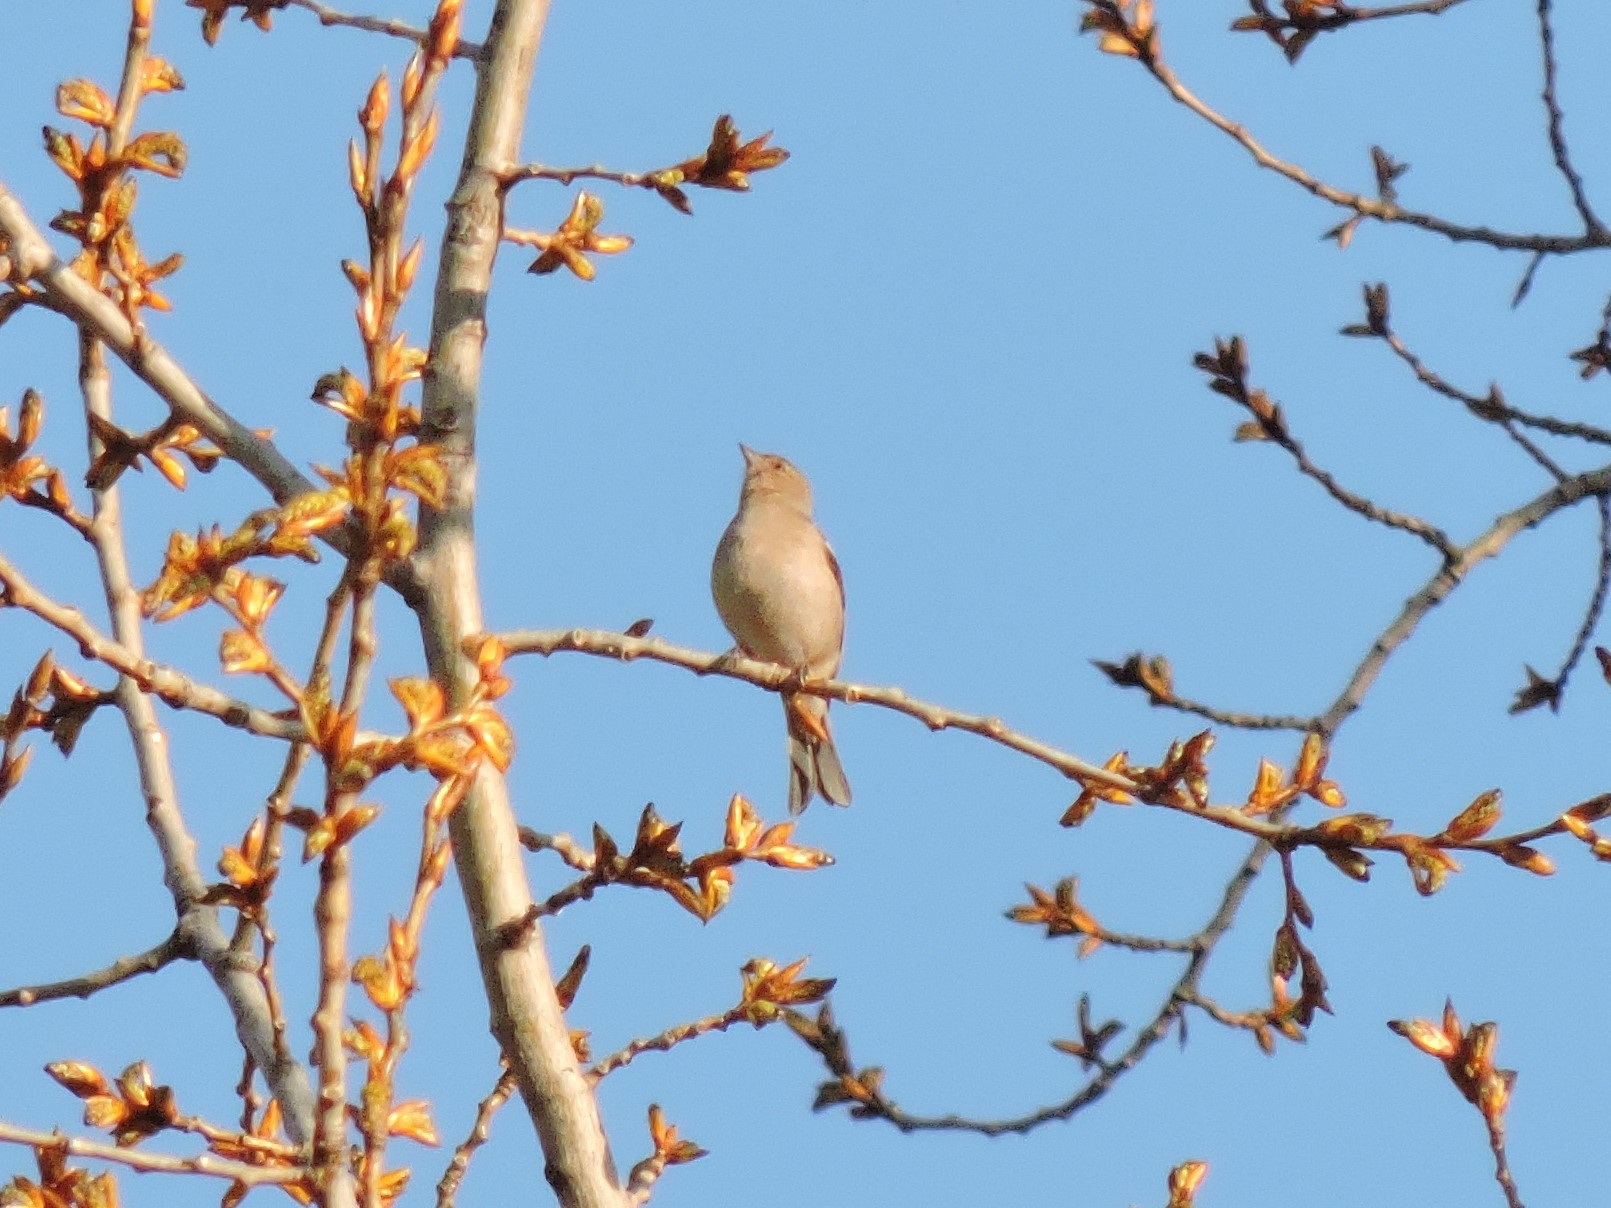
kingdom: Animalia
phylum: Chordata
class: Aves
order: Passeriformes
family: Fringillidae
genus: Fringilla
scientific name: Fringilla coelebs
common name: Common chaffinch
